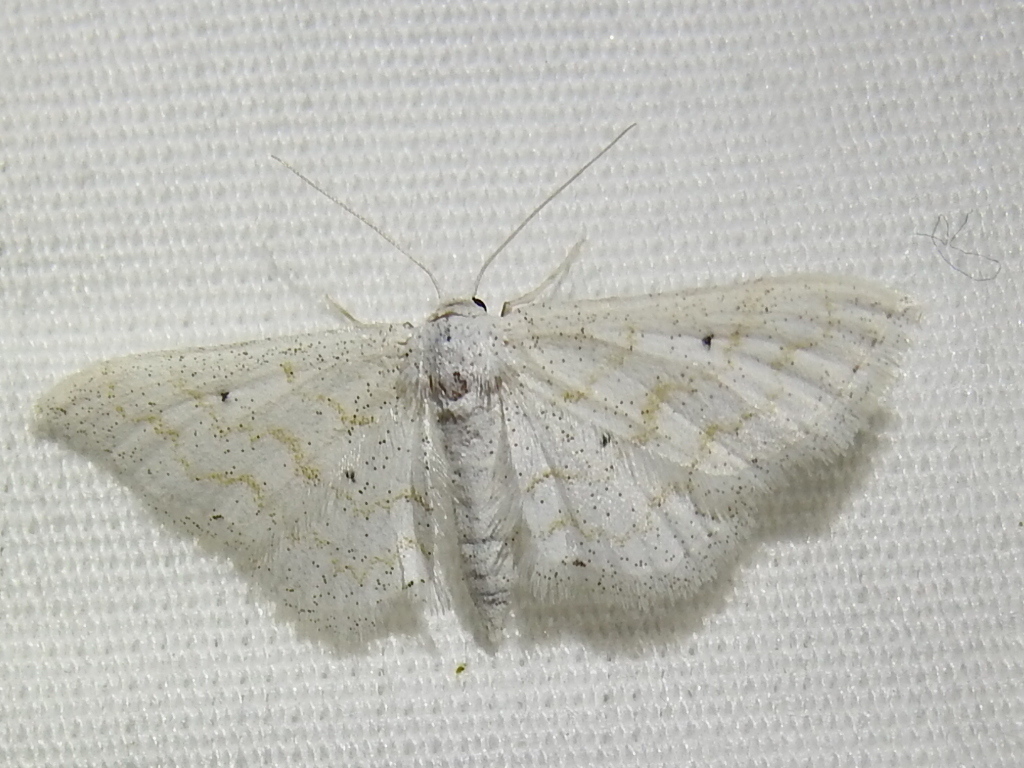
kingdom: Animalia
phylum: Arthropoda
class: Insecta
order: Lepidoptera
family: Geometridae
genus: Lobocleta
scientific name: Lobocleta peralbata
